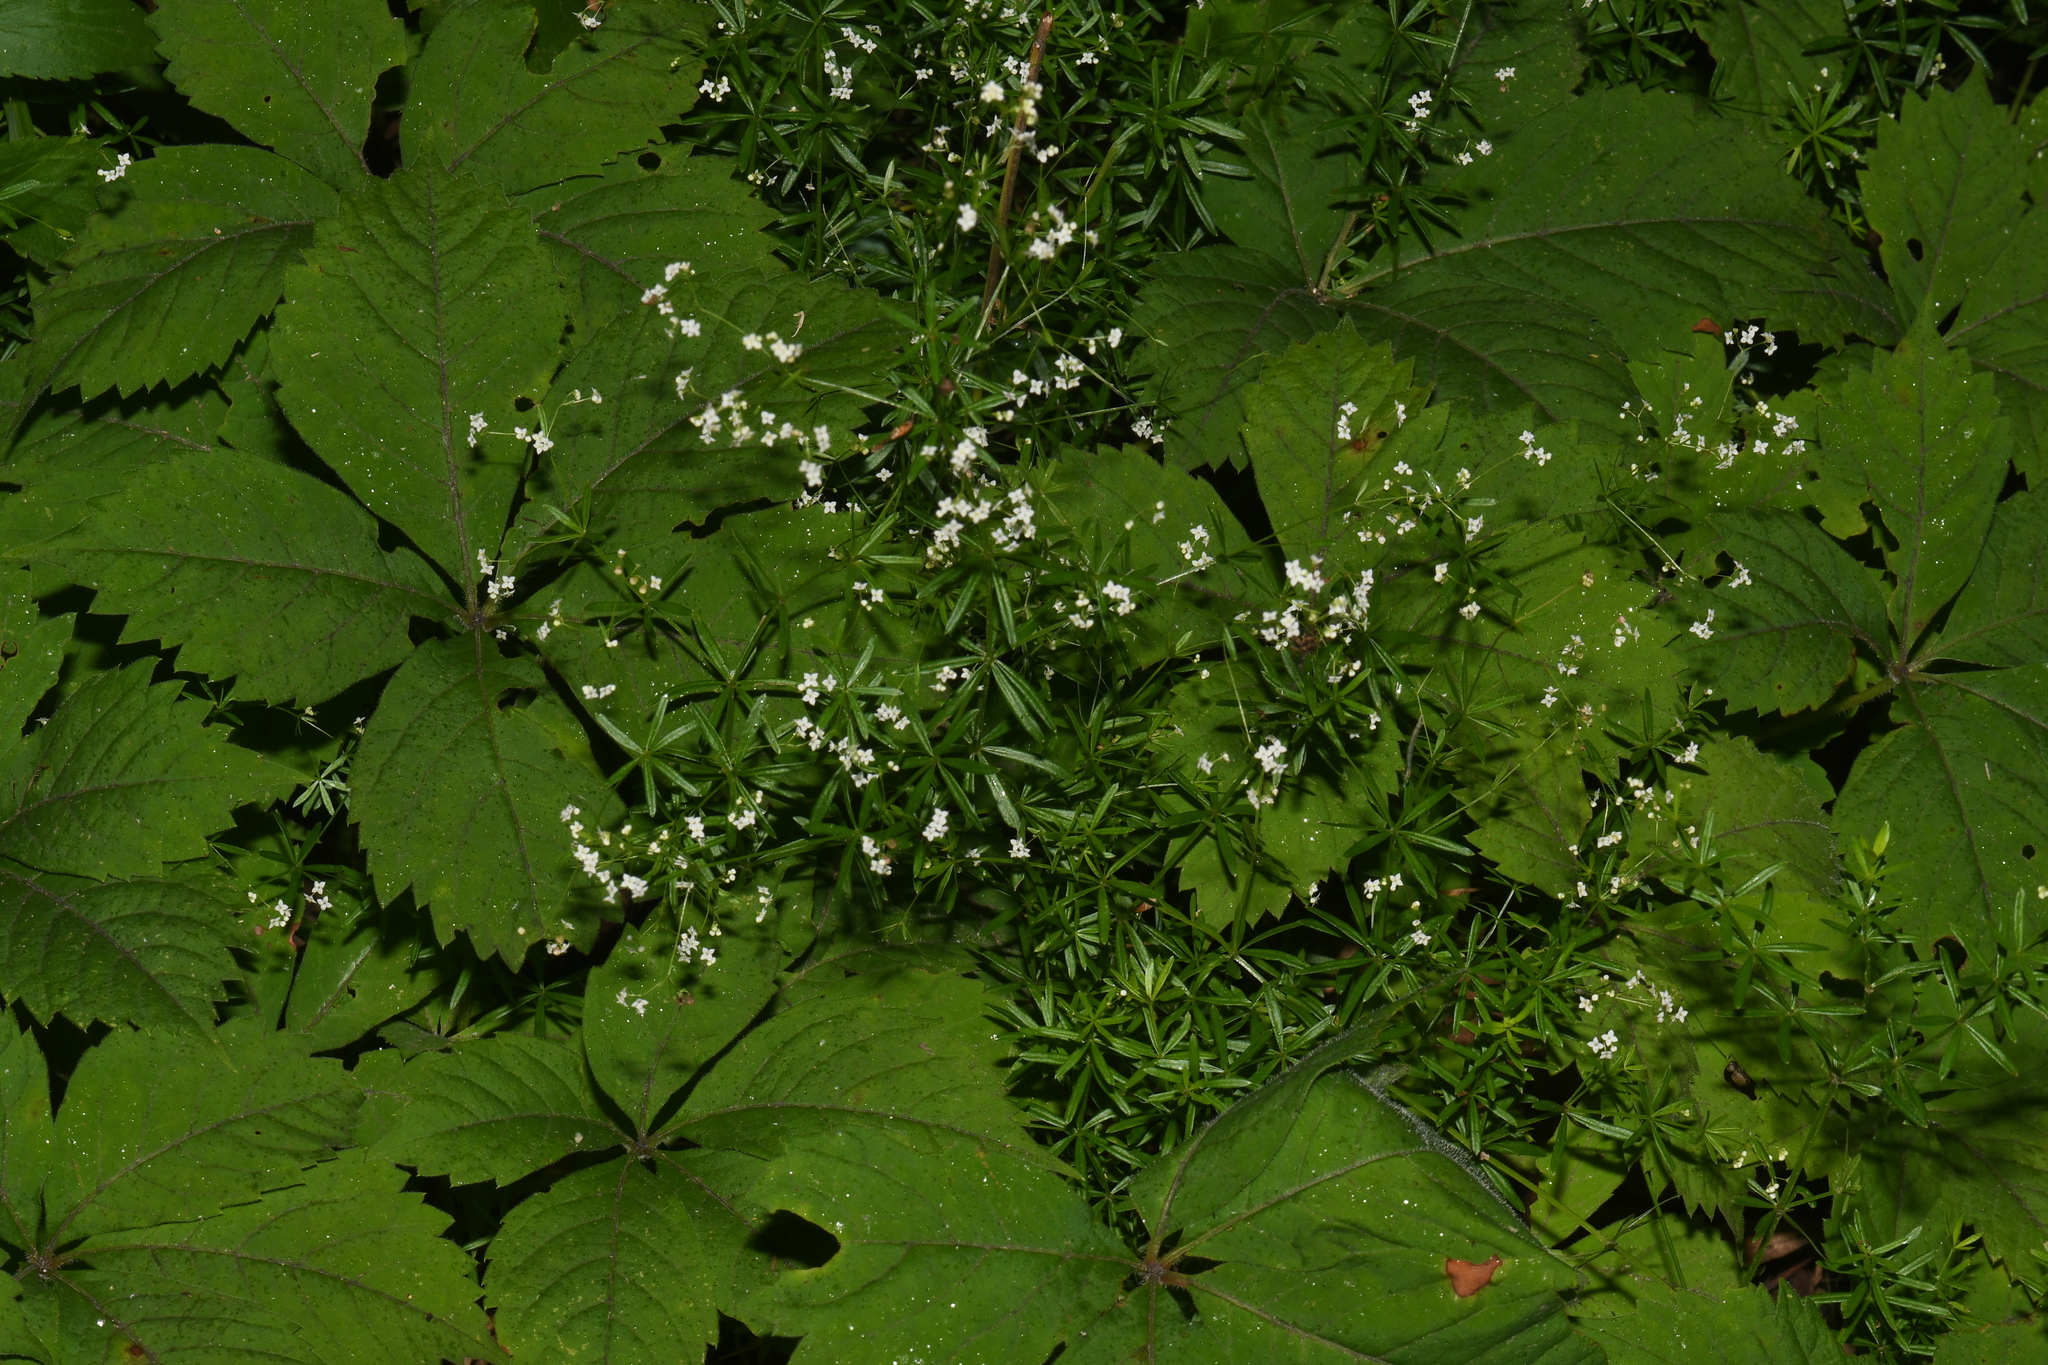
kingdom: Plantae
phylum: Tracheophyta
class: Magnoliopsida
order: Gentianales
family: Rubiaceae
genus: Galium
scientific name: Galium concinnum
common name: Shining bedstraw
